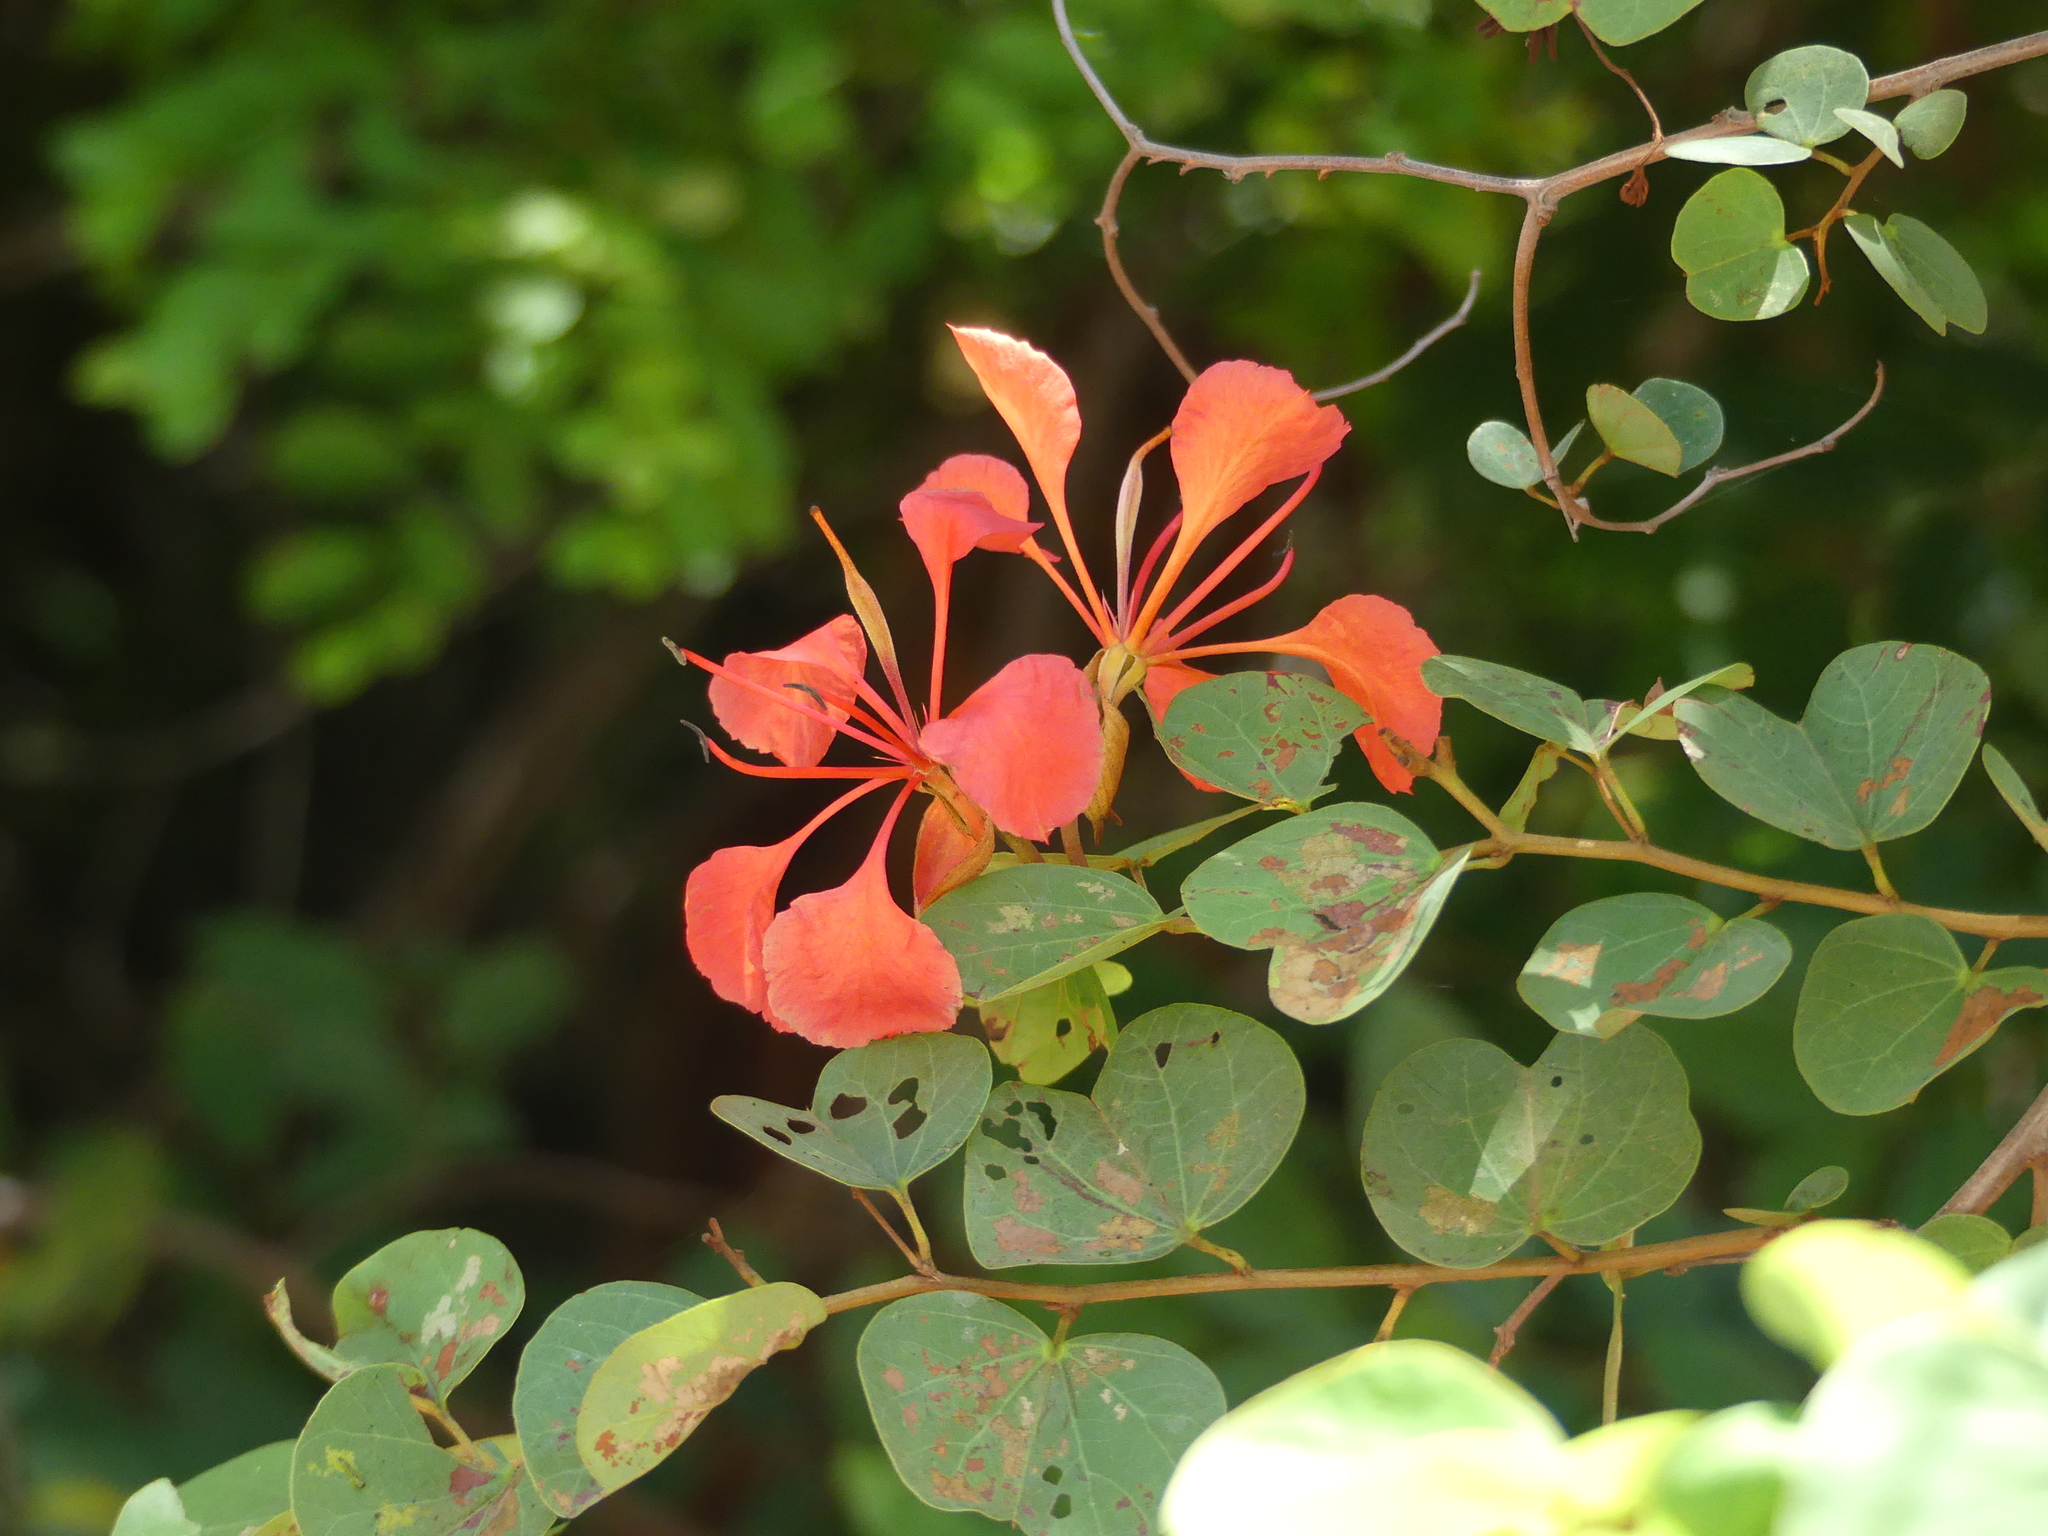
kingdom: Plantae
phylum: Tracheophyta
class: Magnoliopsida
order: Fabales
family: Fabaceae
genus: Bauhinia
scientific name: Bauhinia galpinii
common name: African plume
